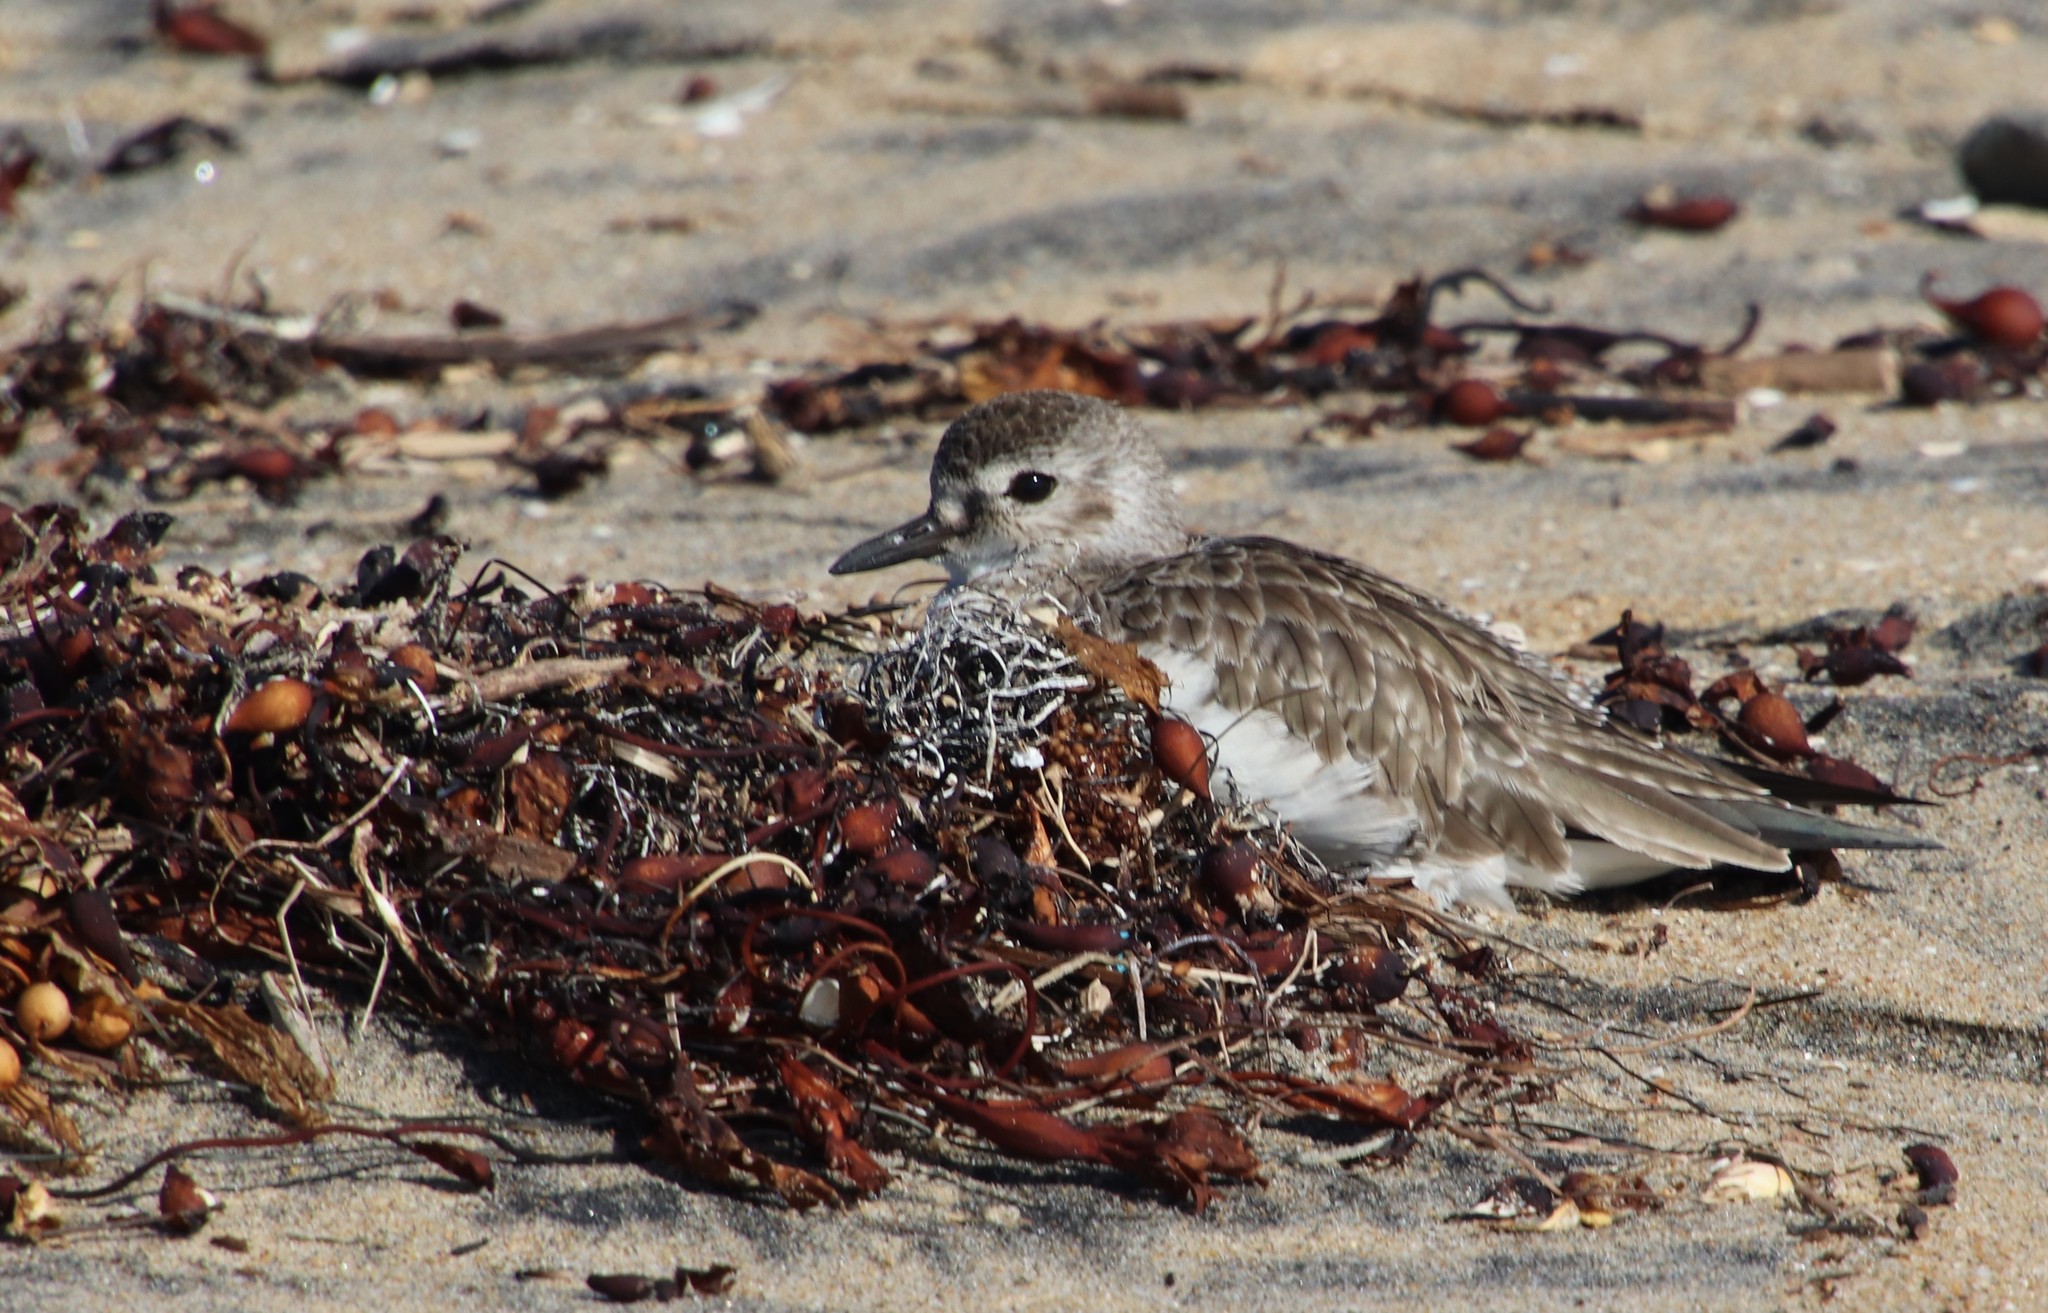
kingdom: Animalia
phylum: Chordata
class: Aves
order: Charadriiformes
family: Charadriidae
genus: Pluvialis
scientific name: Pluvialis squatarola
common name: Grey plover
